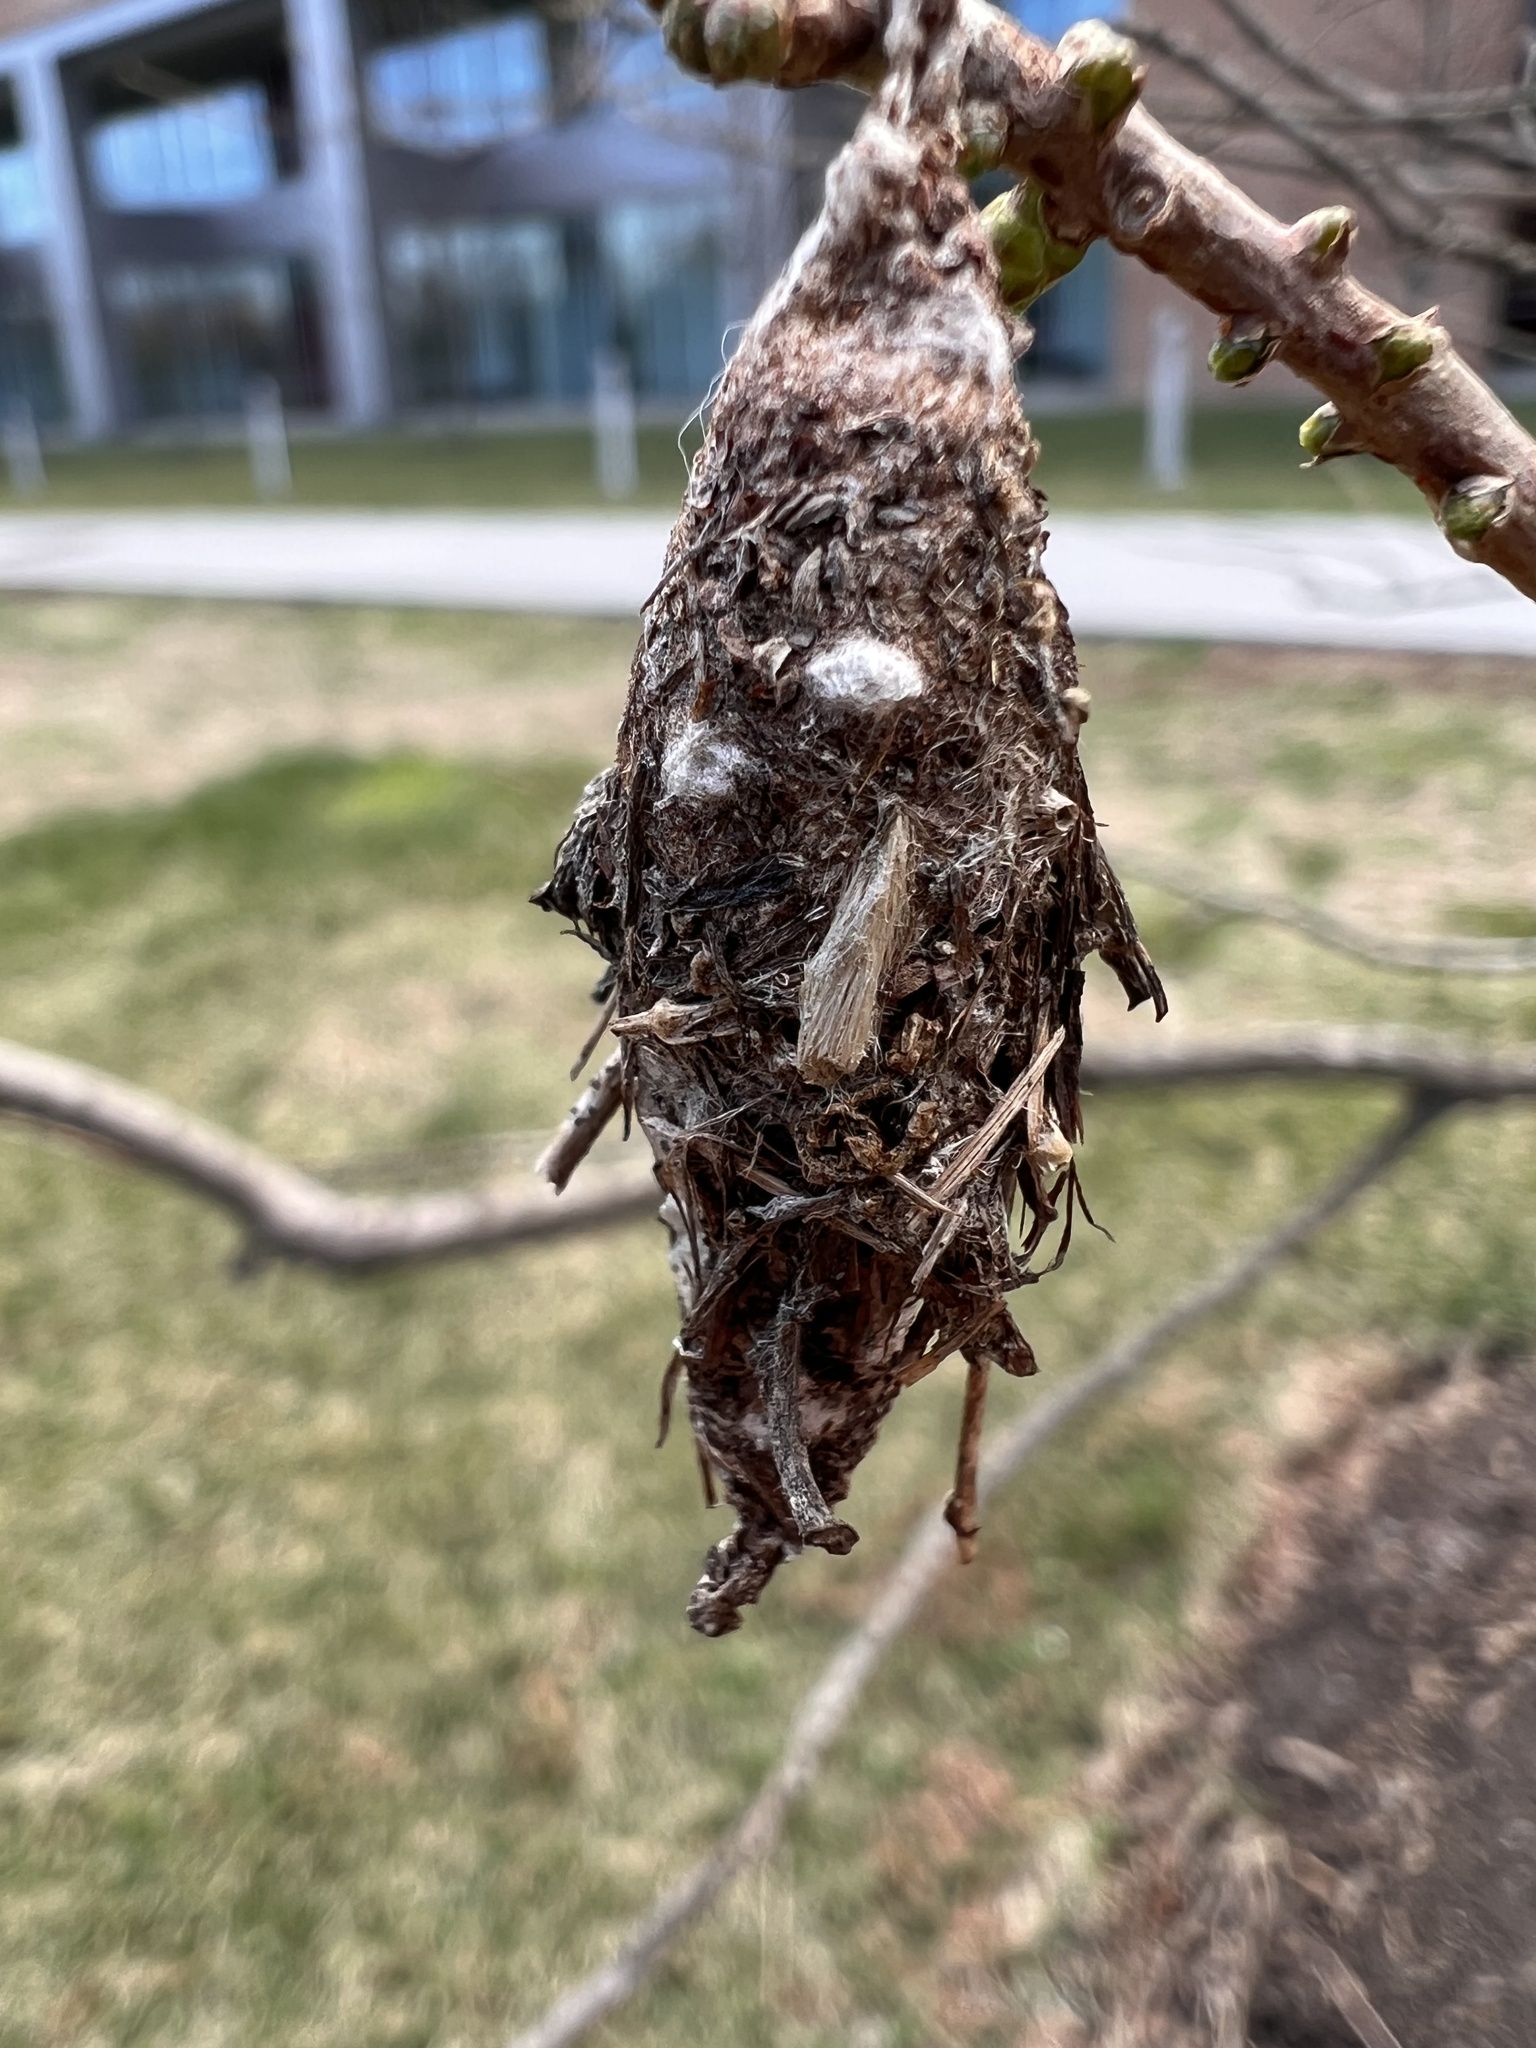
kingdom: Animalia
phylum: Arthropoda
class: Insecta
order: Lepidoptera
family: Psychidae
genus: Thyridopteryx
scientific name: Thyridopteryx ephemeraeformis
